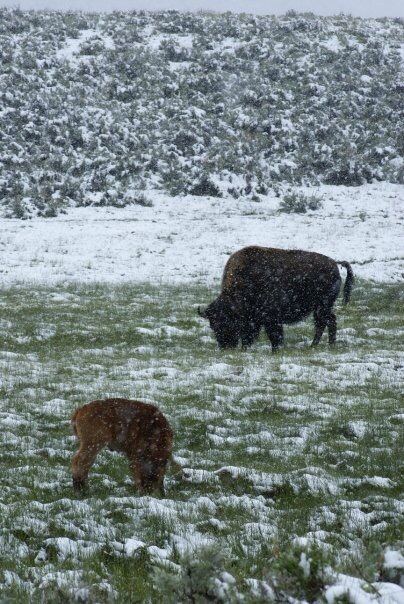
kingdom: Animalia
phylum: Chordata
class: Mammalia
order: Artiodactyla
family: Bovidae
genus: Bison
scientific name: Bison bison
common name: American bison
